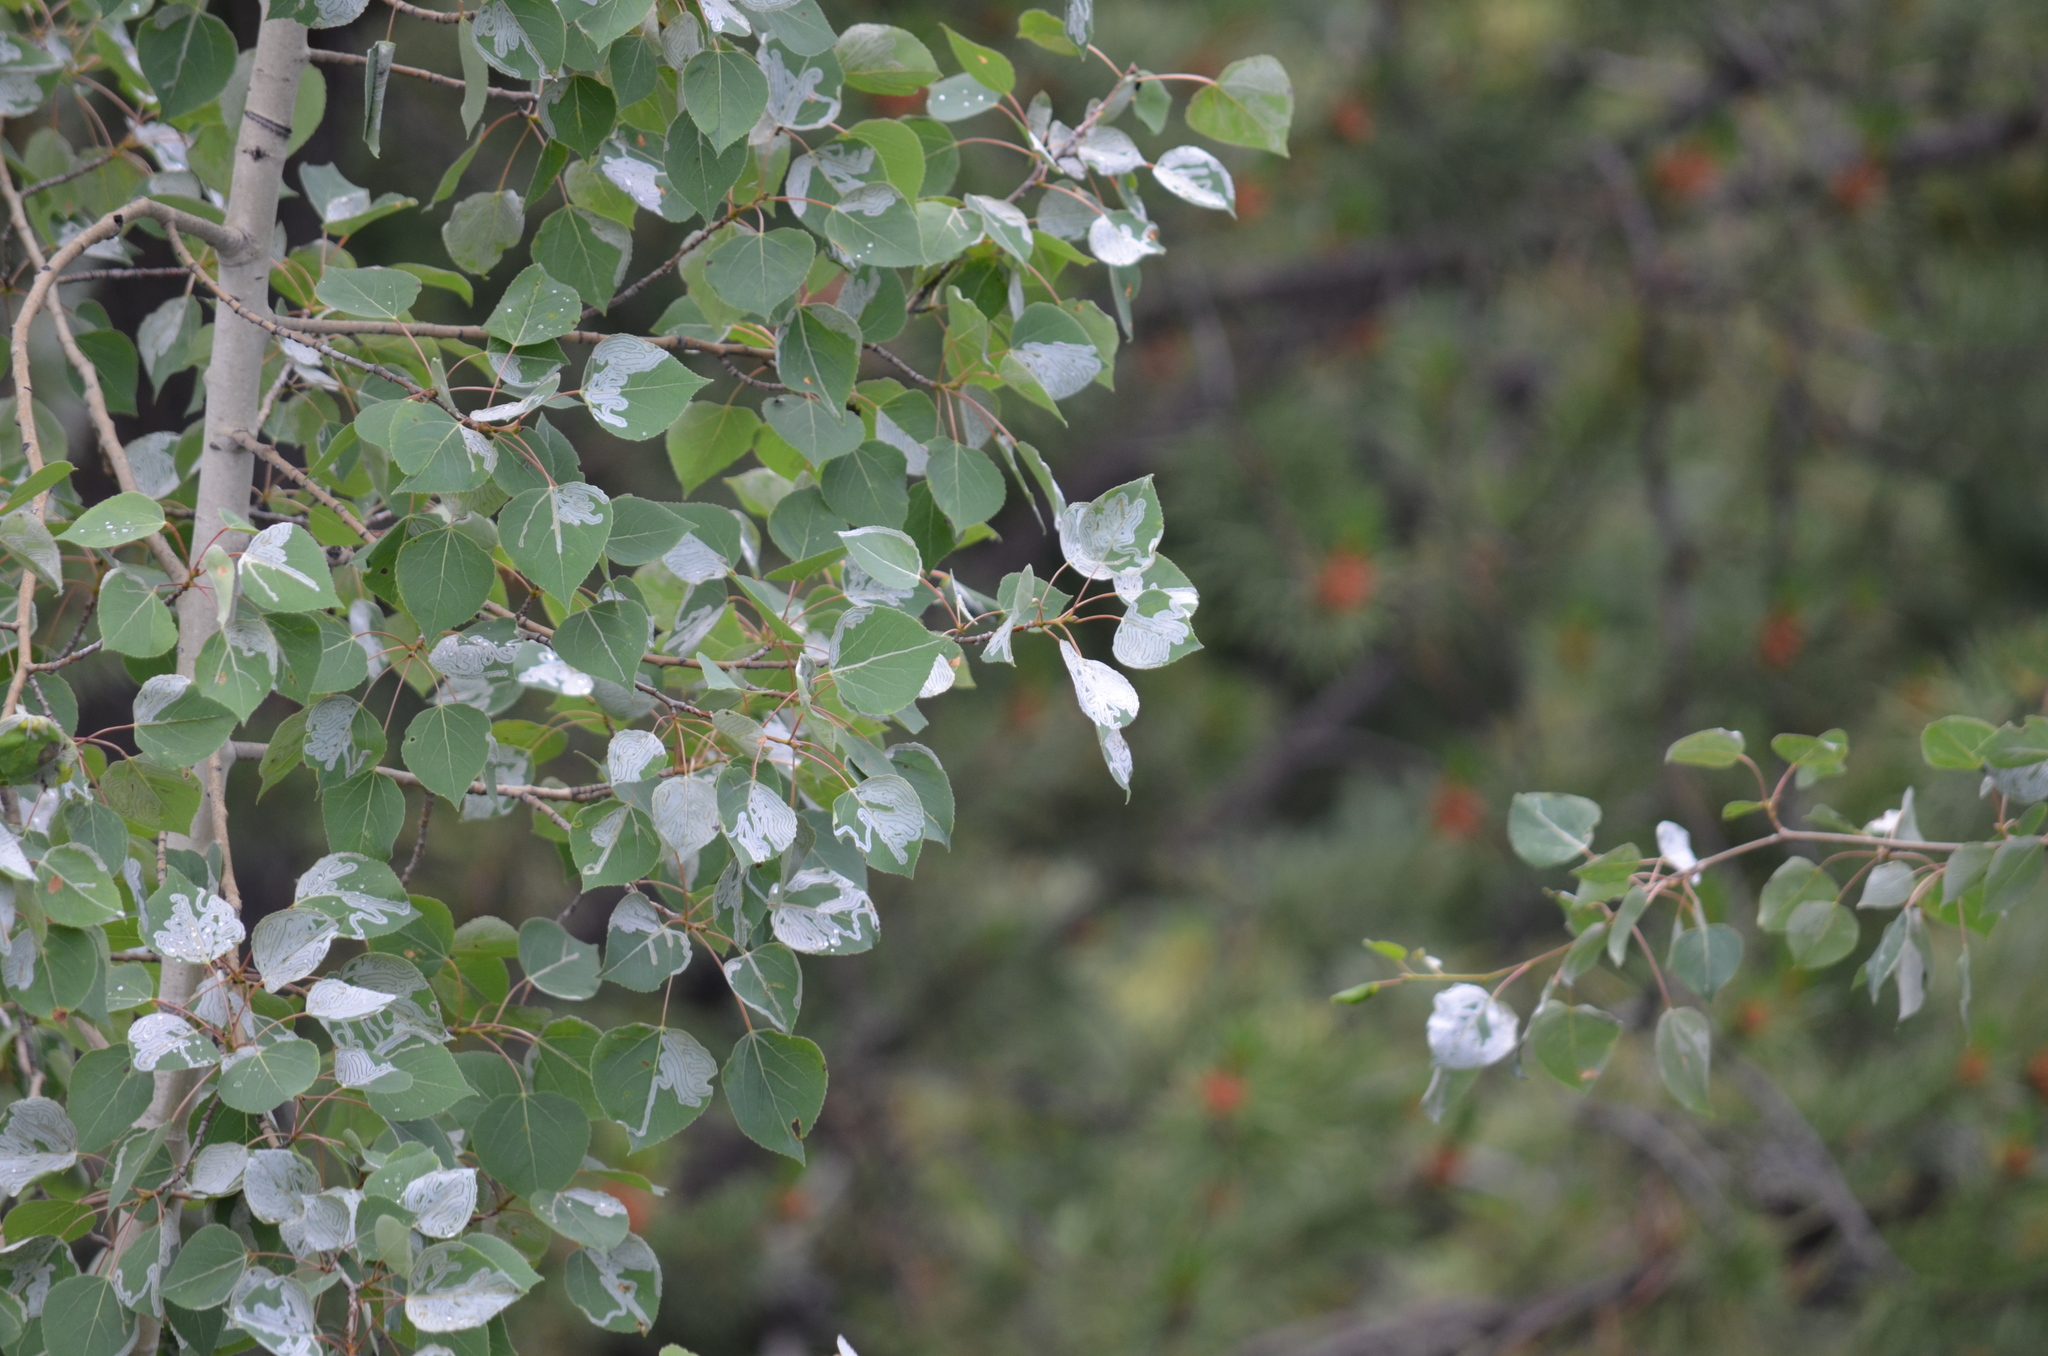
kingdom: Animalia
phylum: Arthropoda
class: Insecta
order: Lepidoptera
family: Gracillariidae
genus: Phyllocnistis
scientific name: Phyllocnistis populiella
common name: Aspen serpentine leafminer moth
